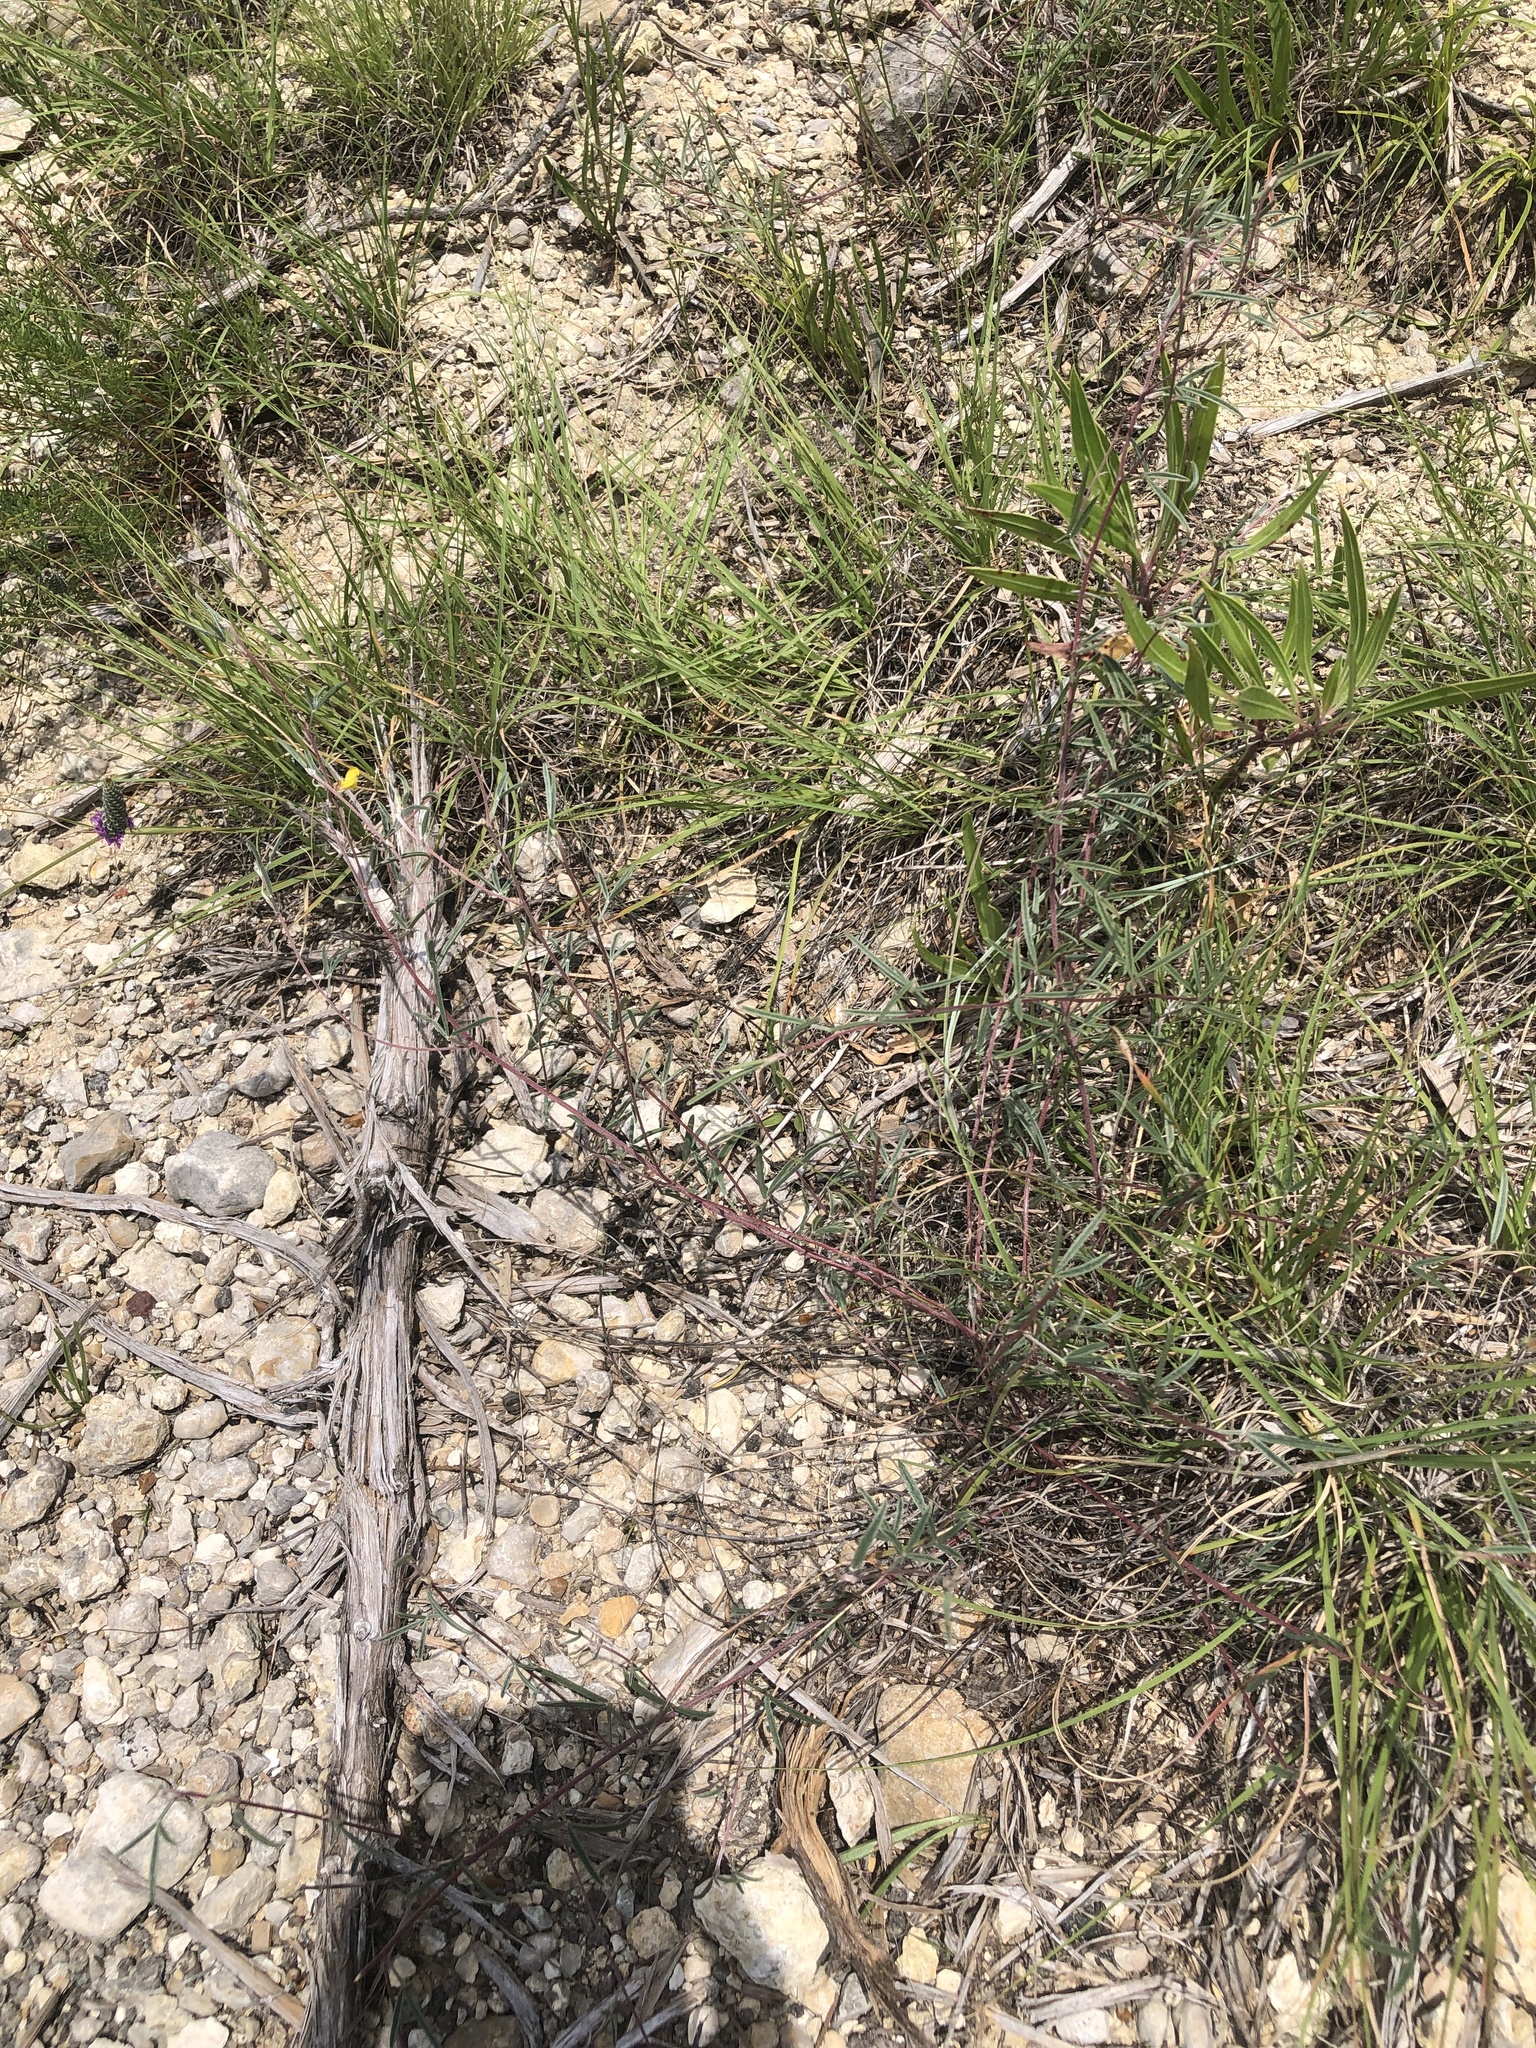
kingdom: Plantae
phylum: Tracheophyta
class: Magnoliopsida
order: Fabales
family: Fabaceae
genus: Dalea
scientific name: Dalea hallii
